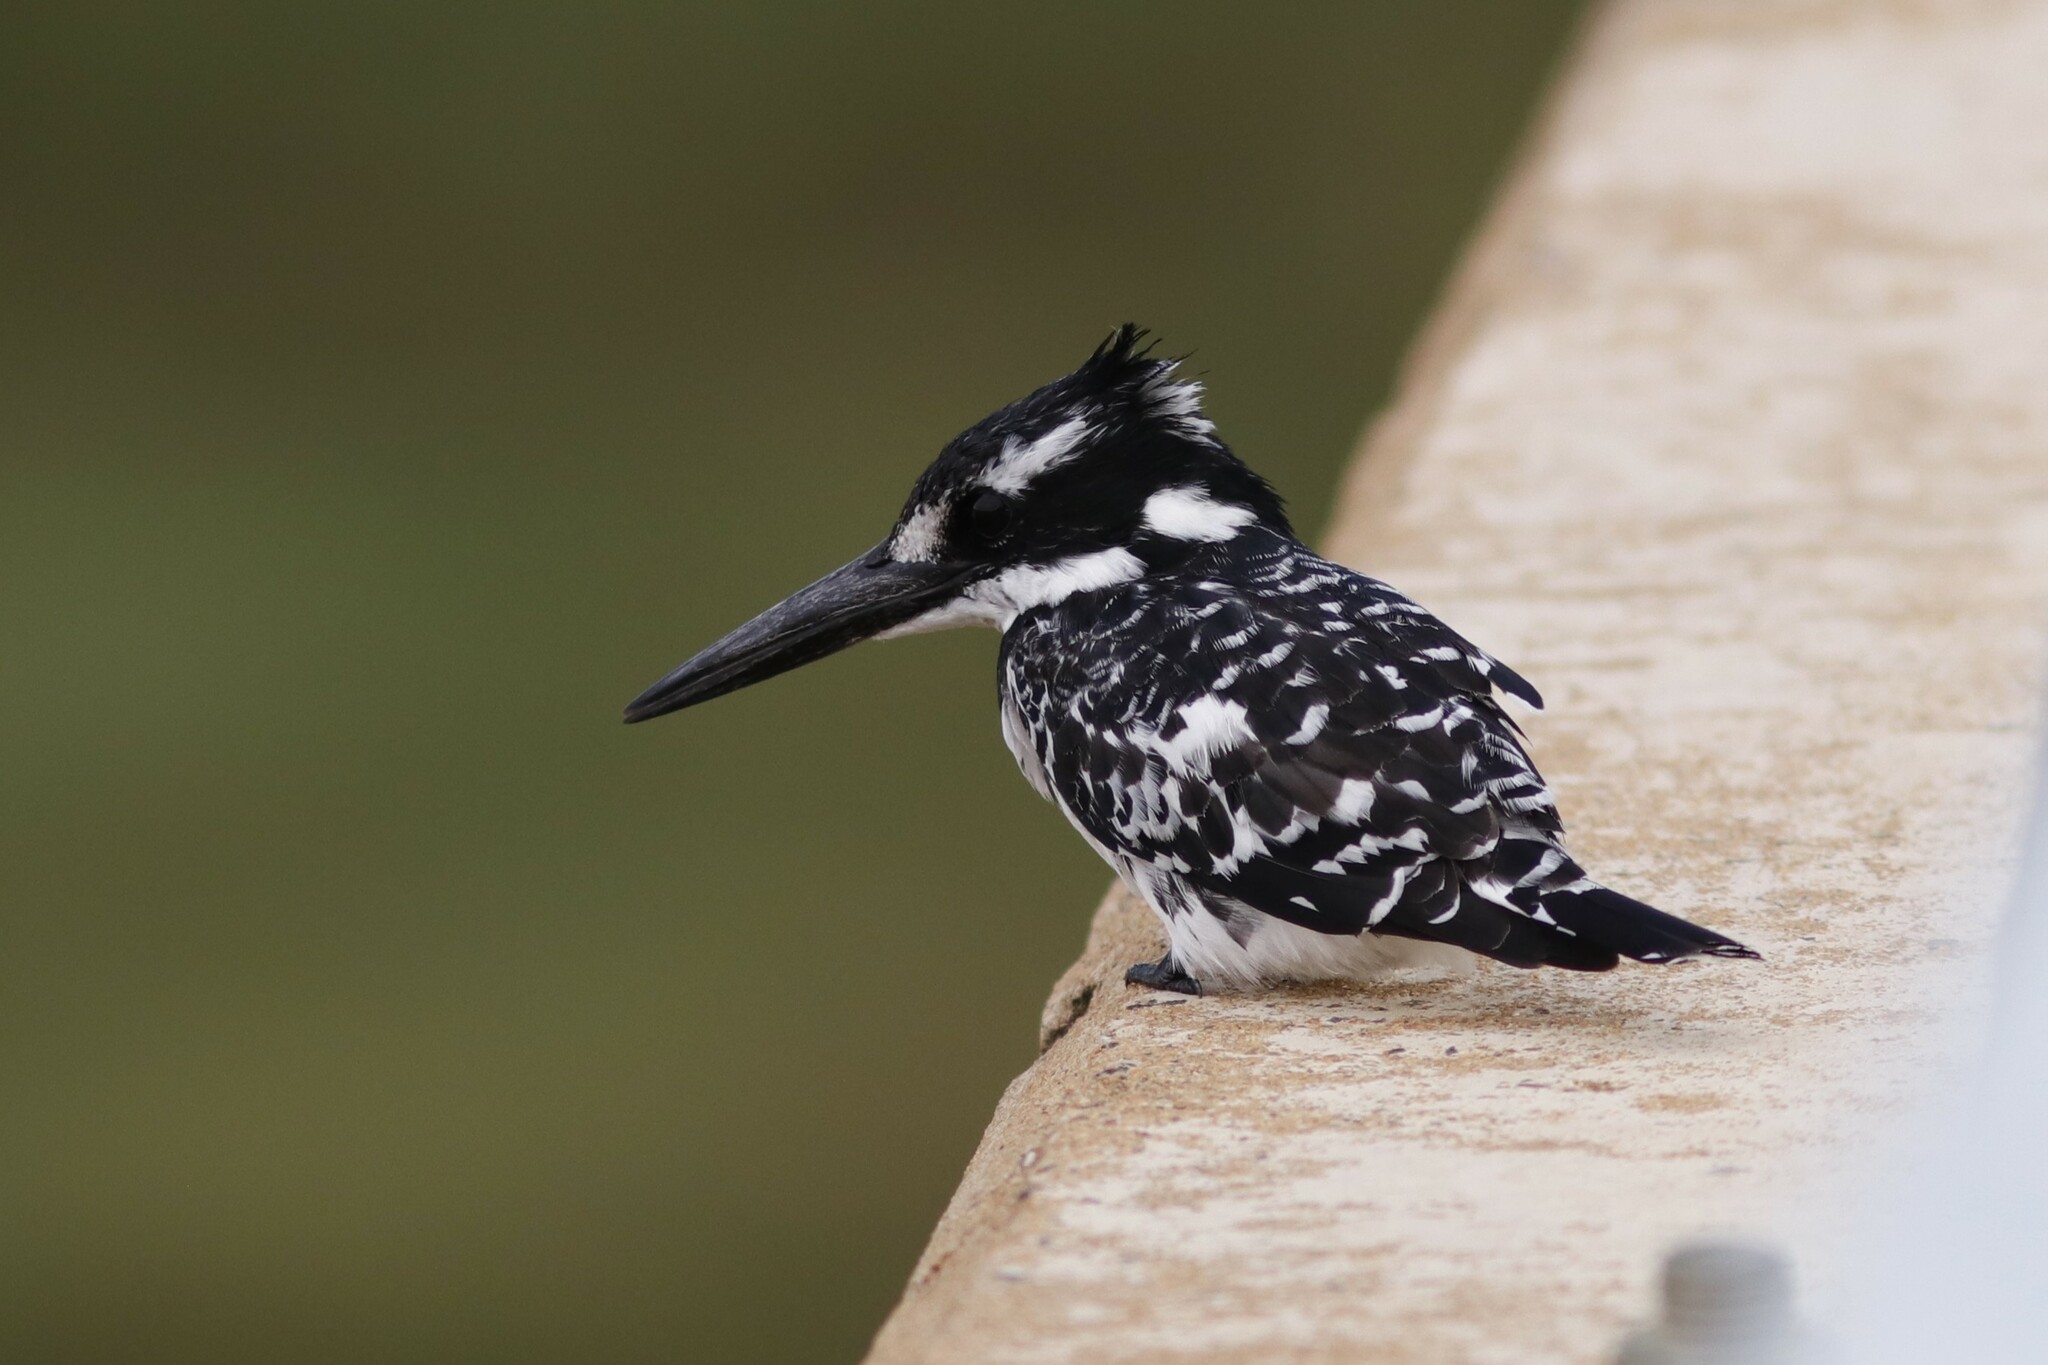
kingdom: Animalia
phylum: Chordata
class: Aves
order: Coraciiformes
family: Alcedinidae
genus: Ceryle
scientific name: Ceryle rudis
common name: Pied kingfisher
